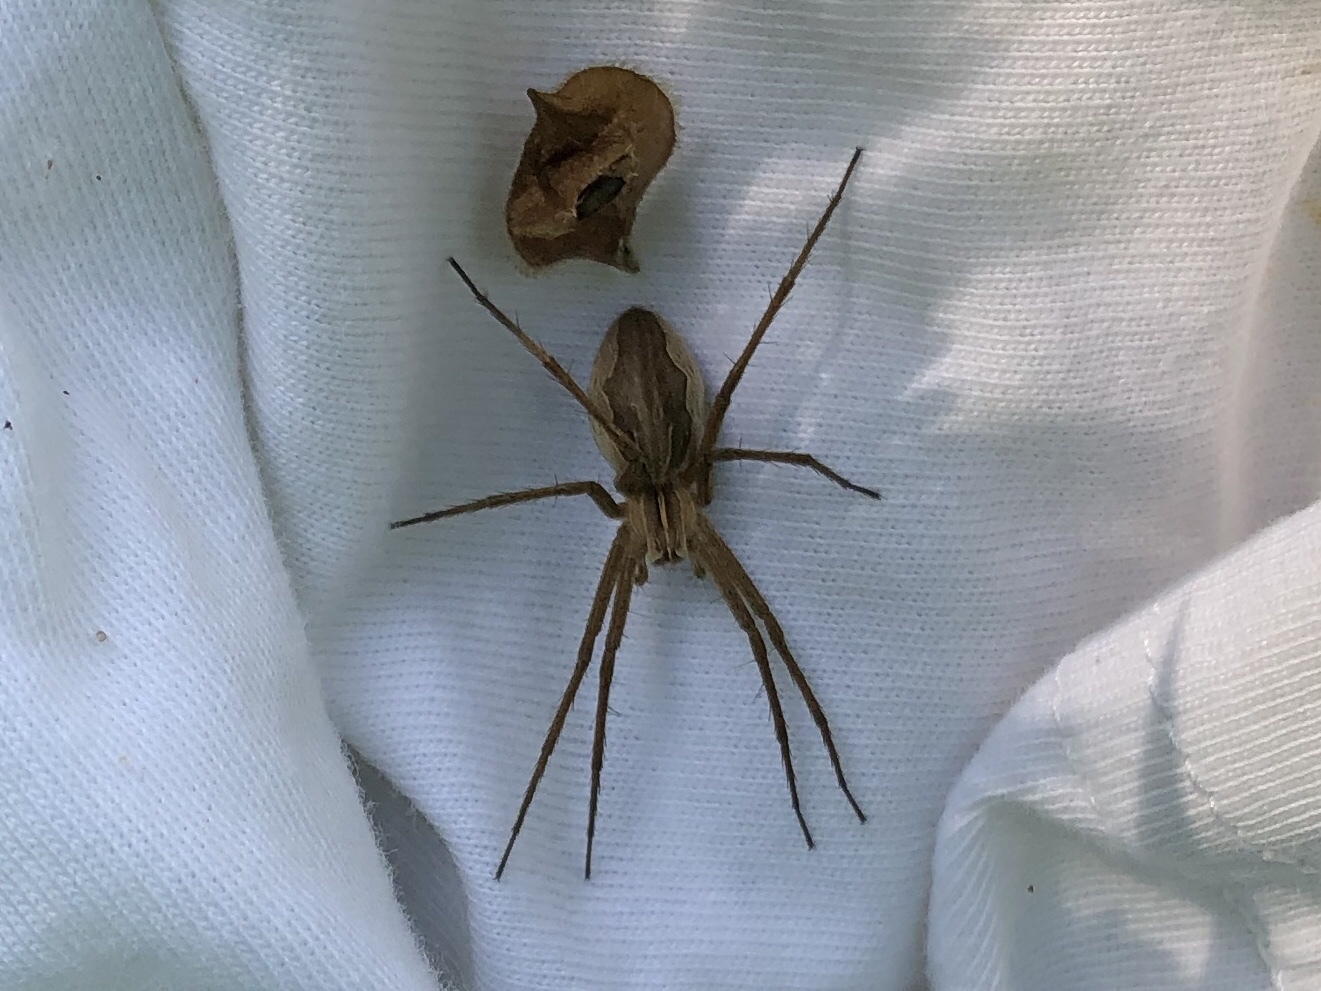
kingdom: Animalia
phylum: Arthropoda
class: Arachnida
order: Araneae
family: Pisauridae
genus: Pisaura
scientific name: Pisaura mirabilis
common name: Tent spider
